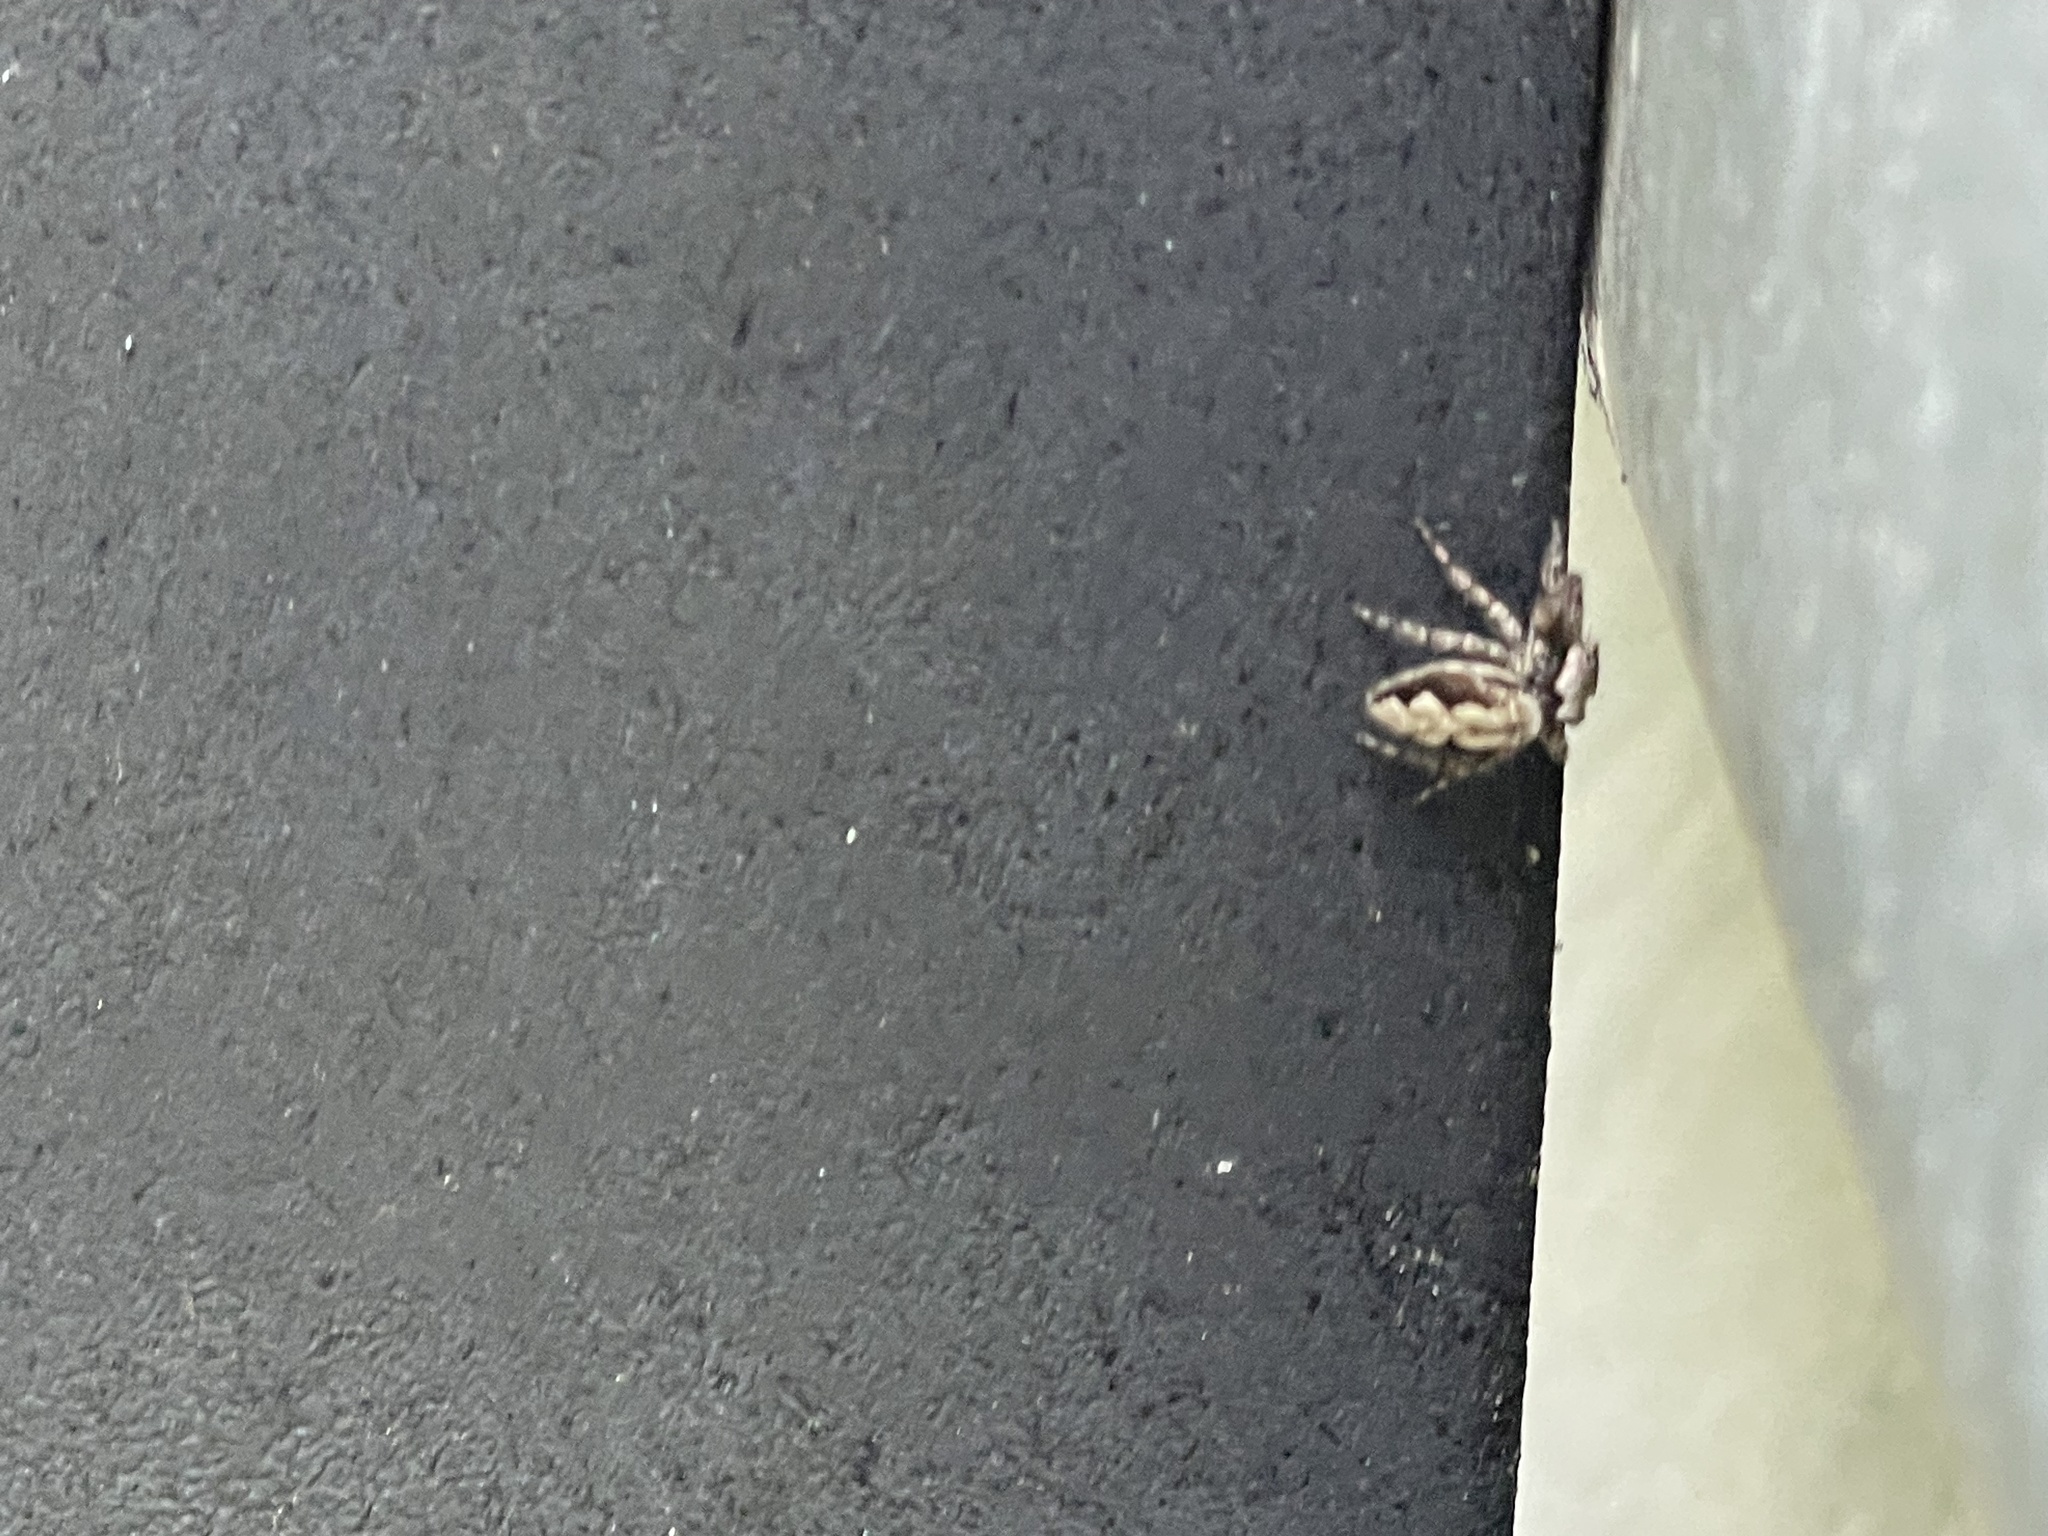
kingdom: Animalia
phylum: Arthropoda
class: Arachnida
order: Araneae
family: Salticidae
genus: Platycryptus
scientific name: Platycryptus undatus
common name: Tan jumping spider
